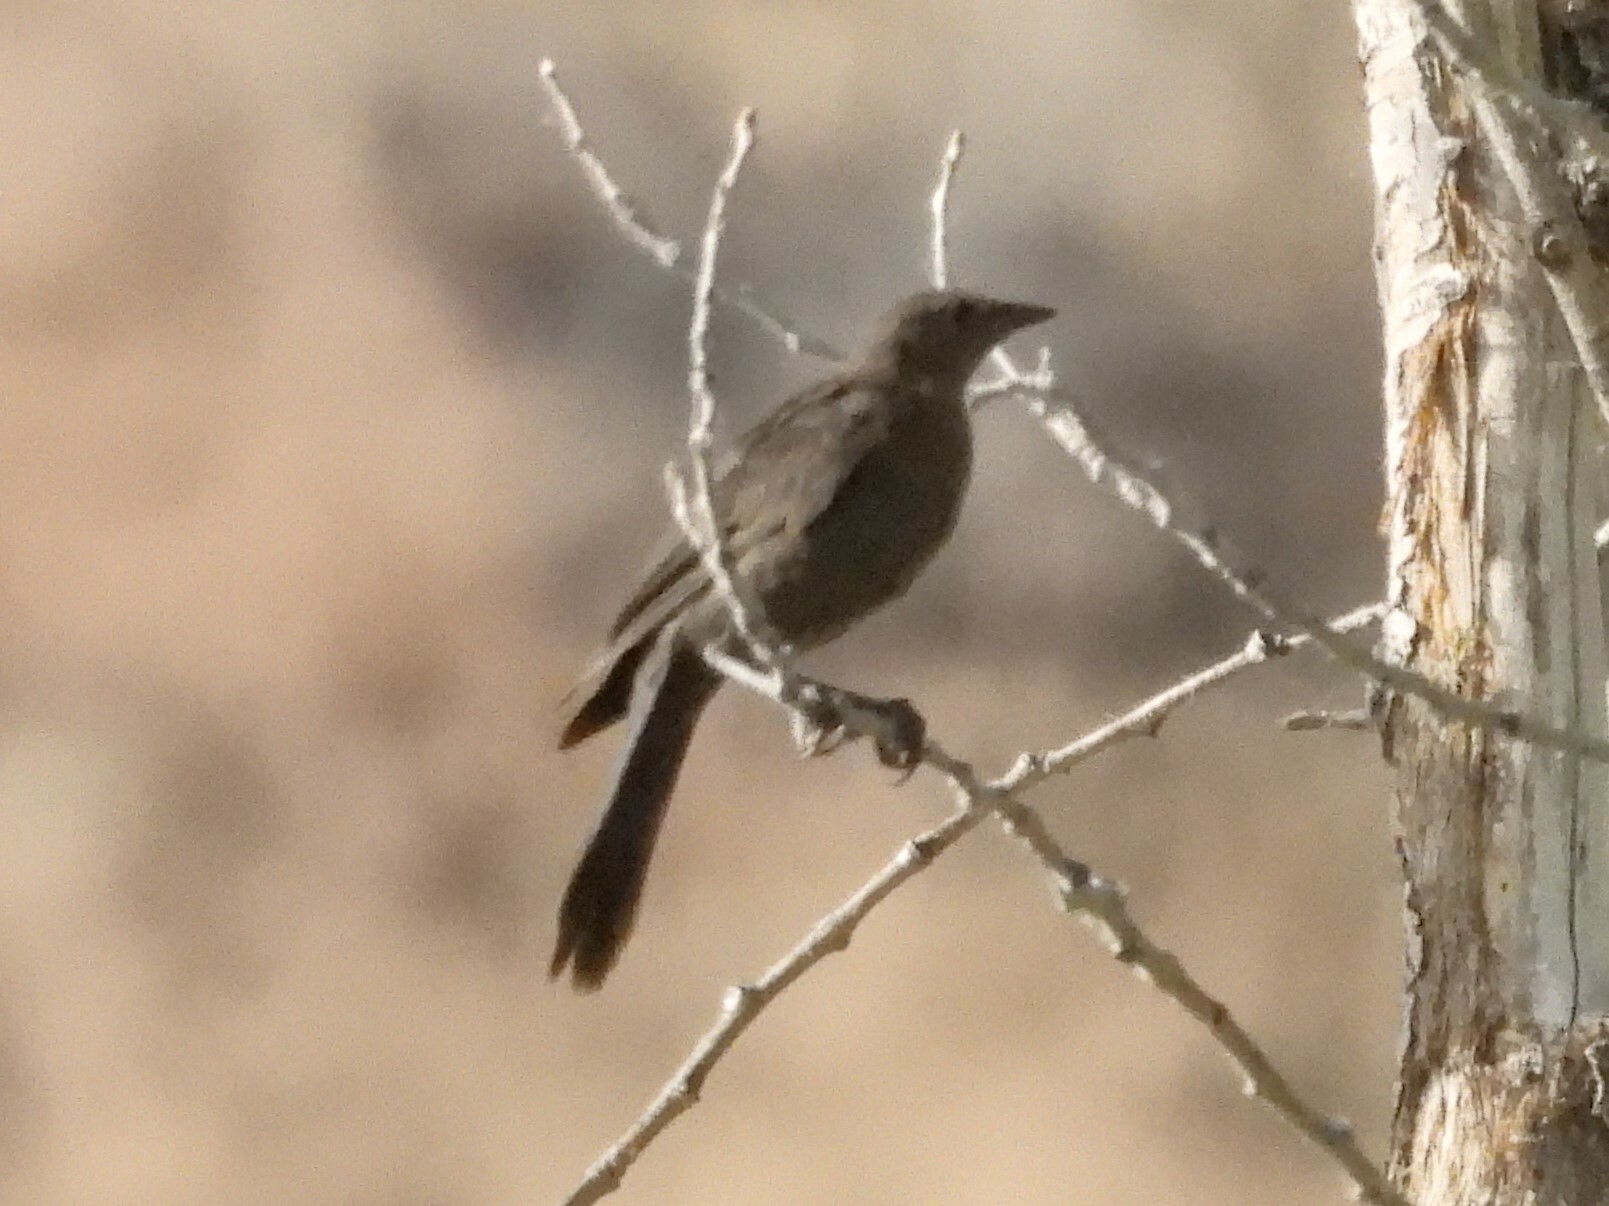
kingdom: Animalia
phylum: Chordata
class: Aves
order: Passeriformes
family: Icteridae
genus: Quiscalus
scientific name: Quiscalus mexicanus
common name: Great-tailed grackle
